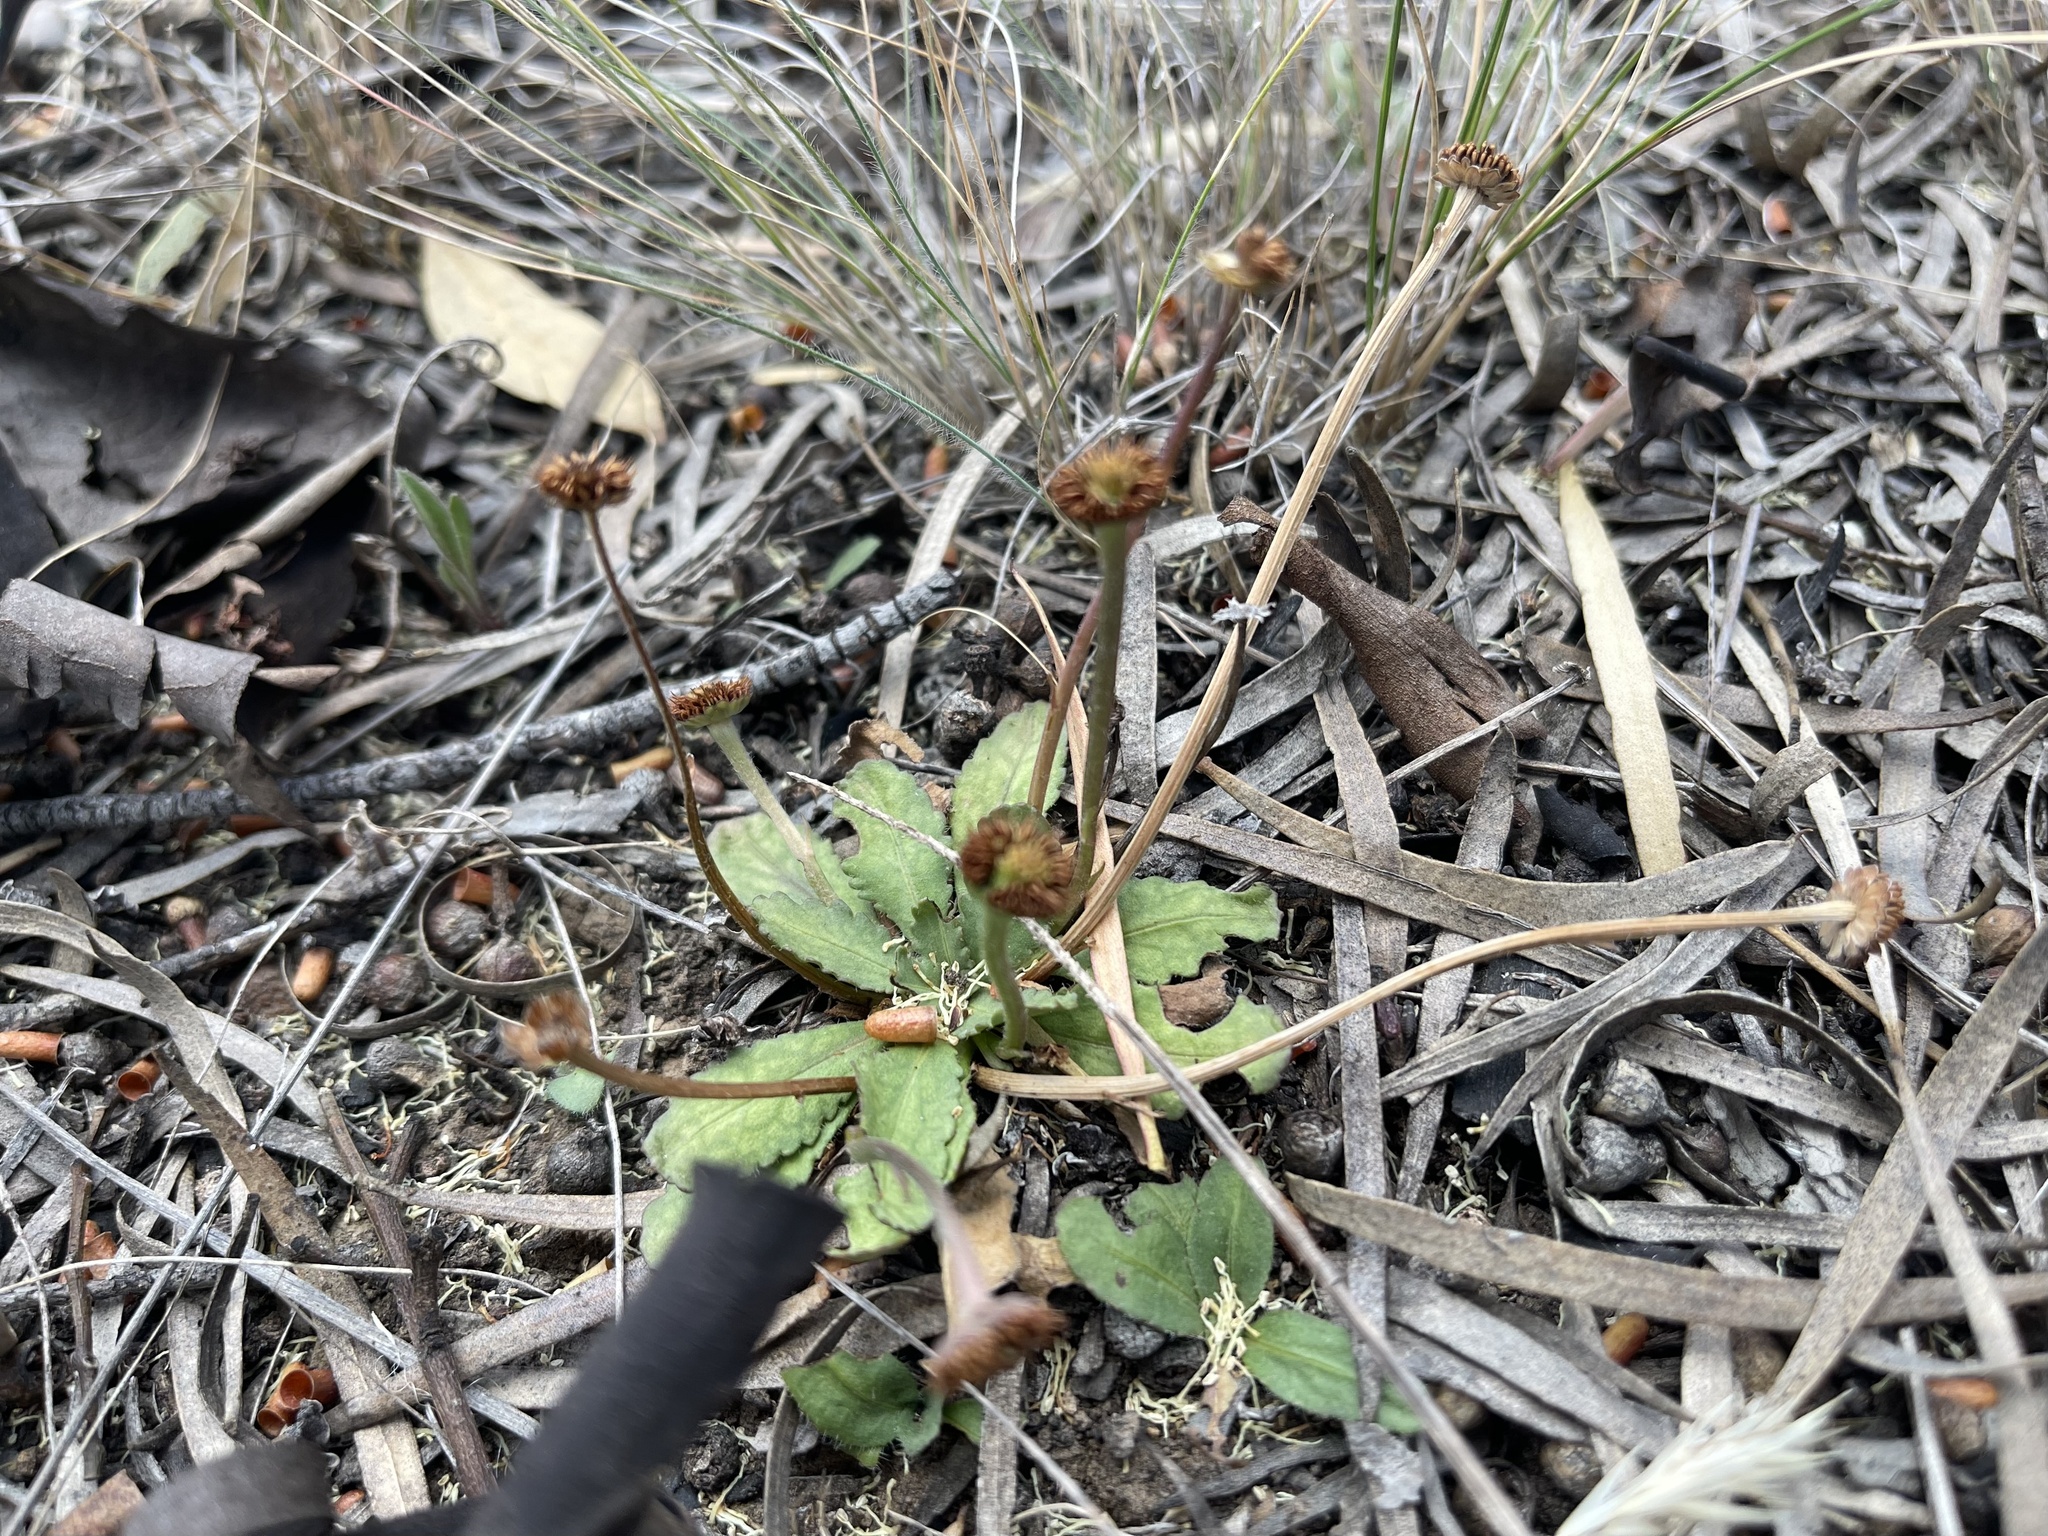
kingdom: Plantae
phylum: Tracheophyta
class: Magnoliopsida
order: Asterales
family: Asteraceae
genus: Solenogyne
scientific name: Solenogyne dominii
